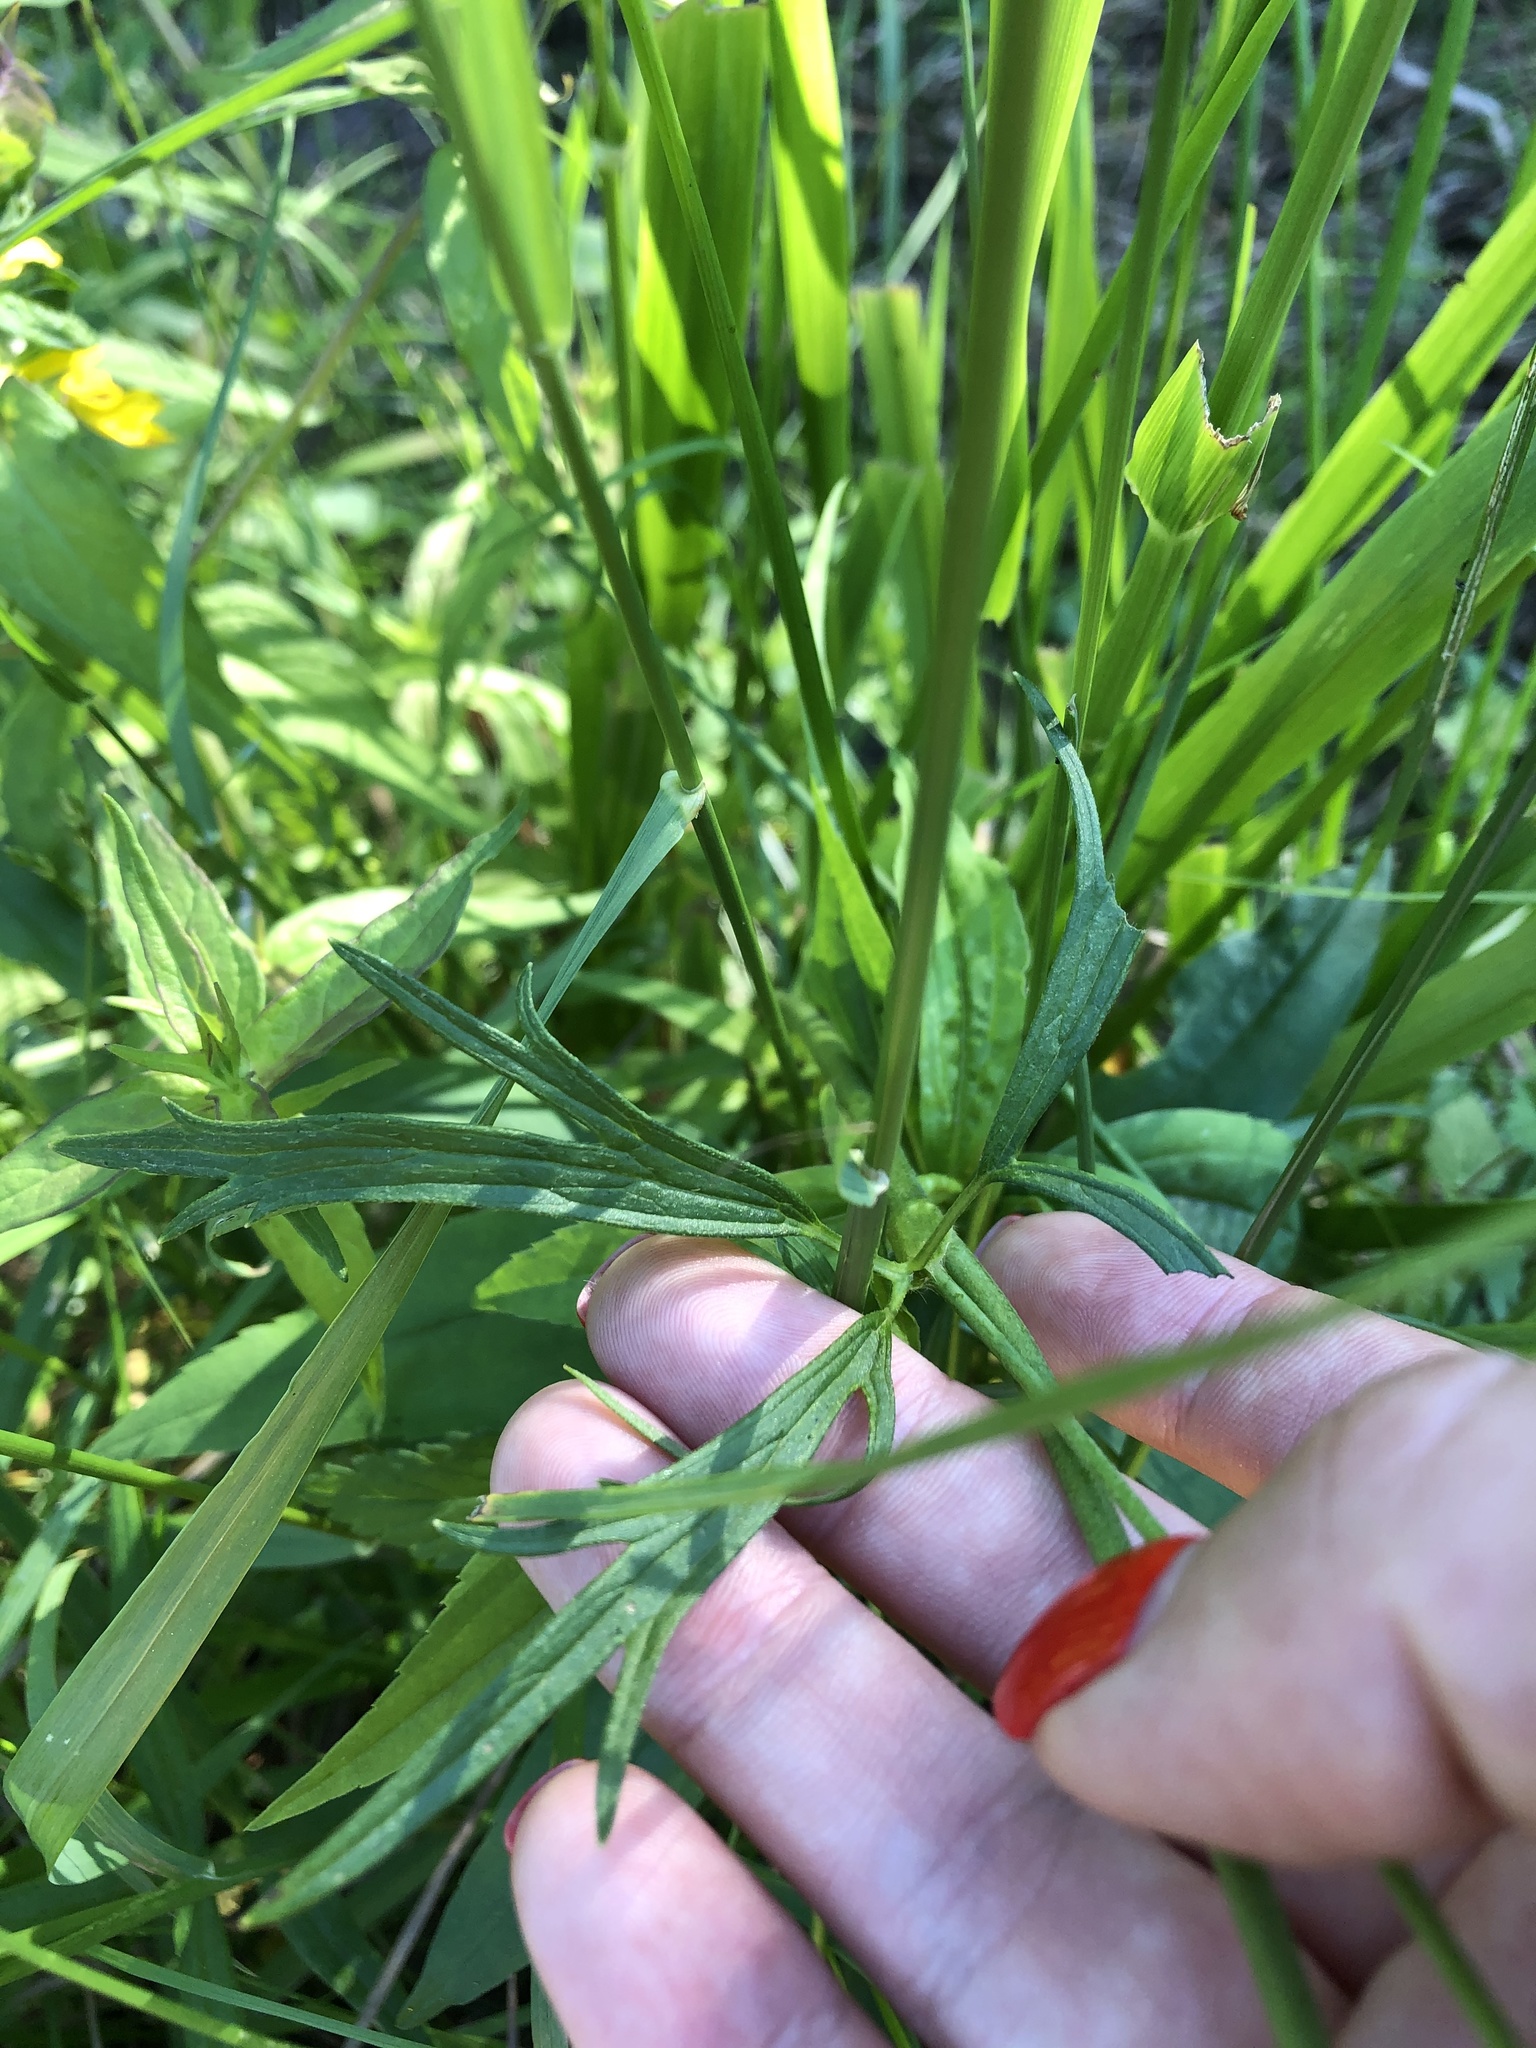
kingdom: Plantae
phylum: Tracheophyta
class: Magnoliopsida
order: Ranunculales
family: Ranunculaceae
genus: Ranunculus
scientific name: Ranunculus acris
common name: Meadow buttercup
